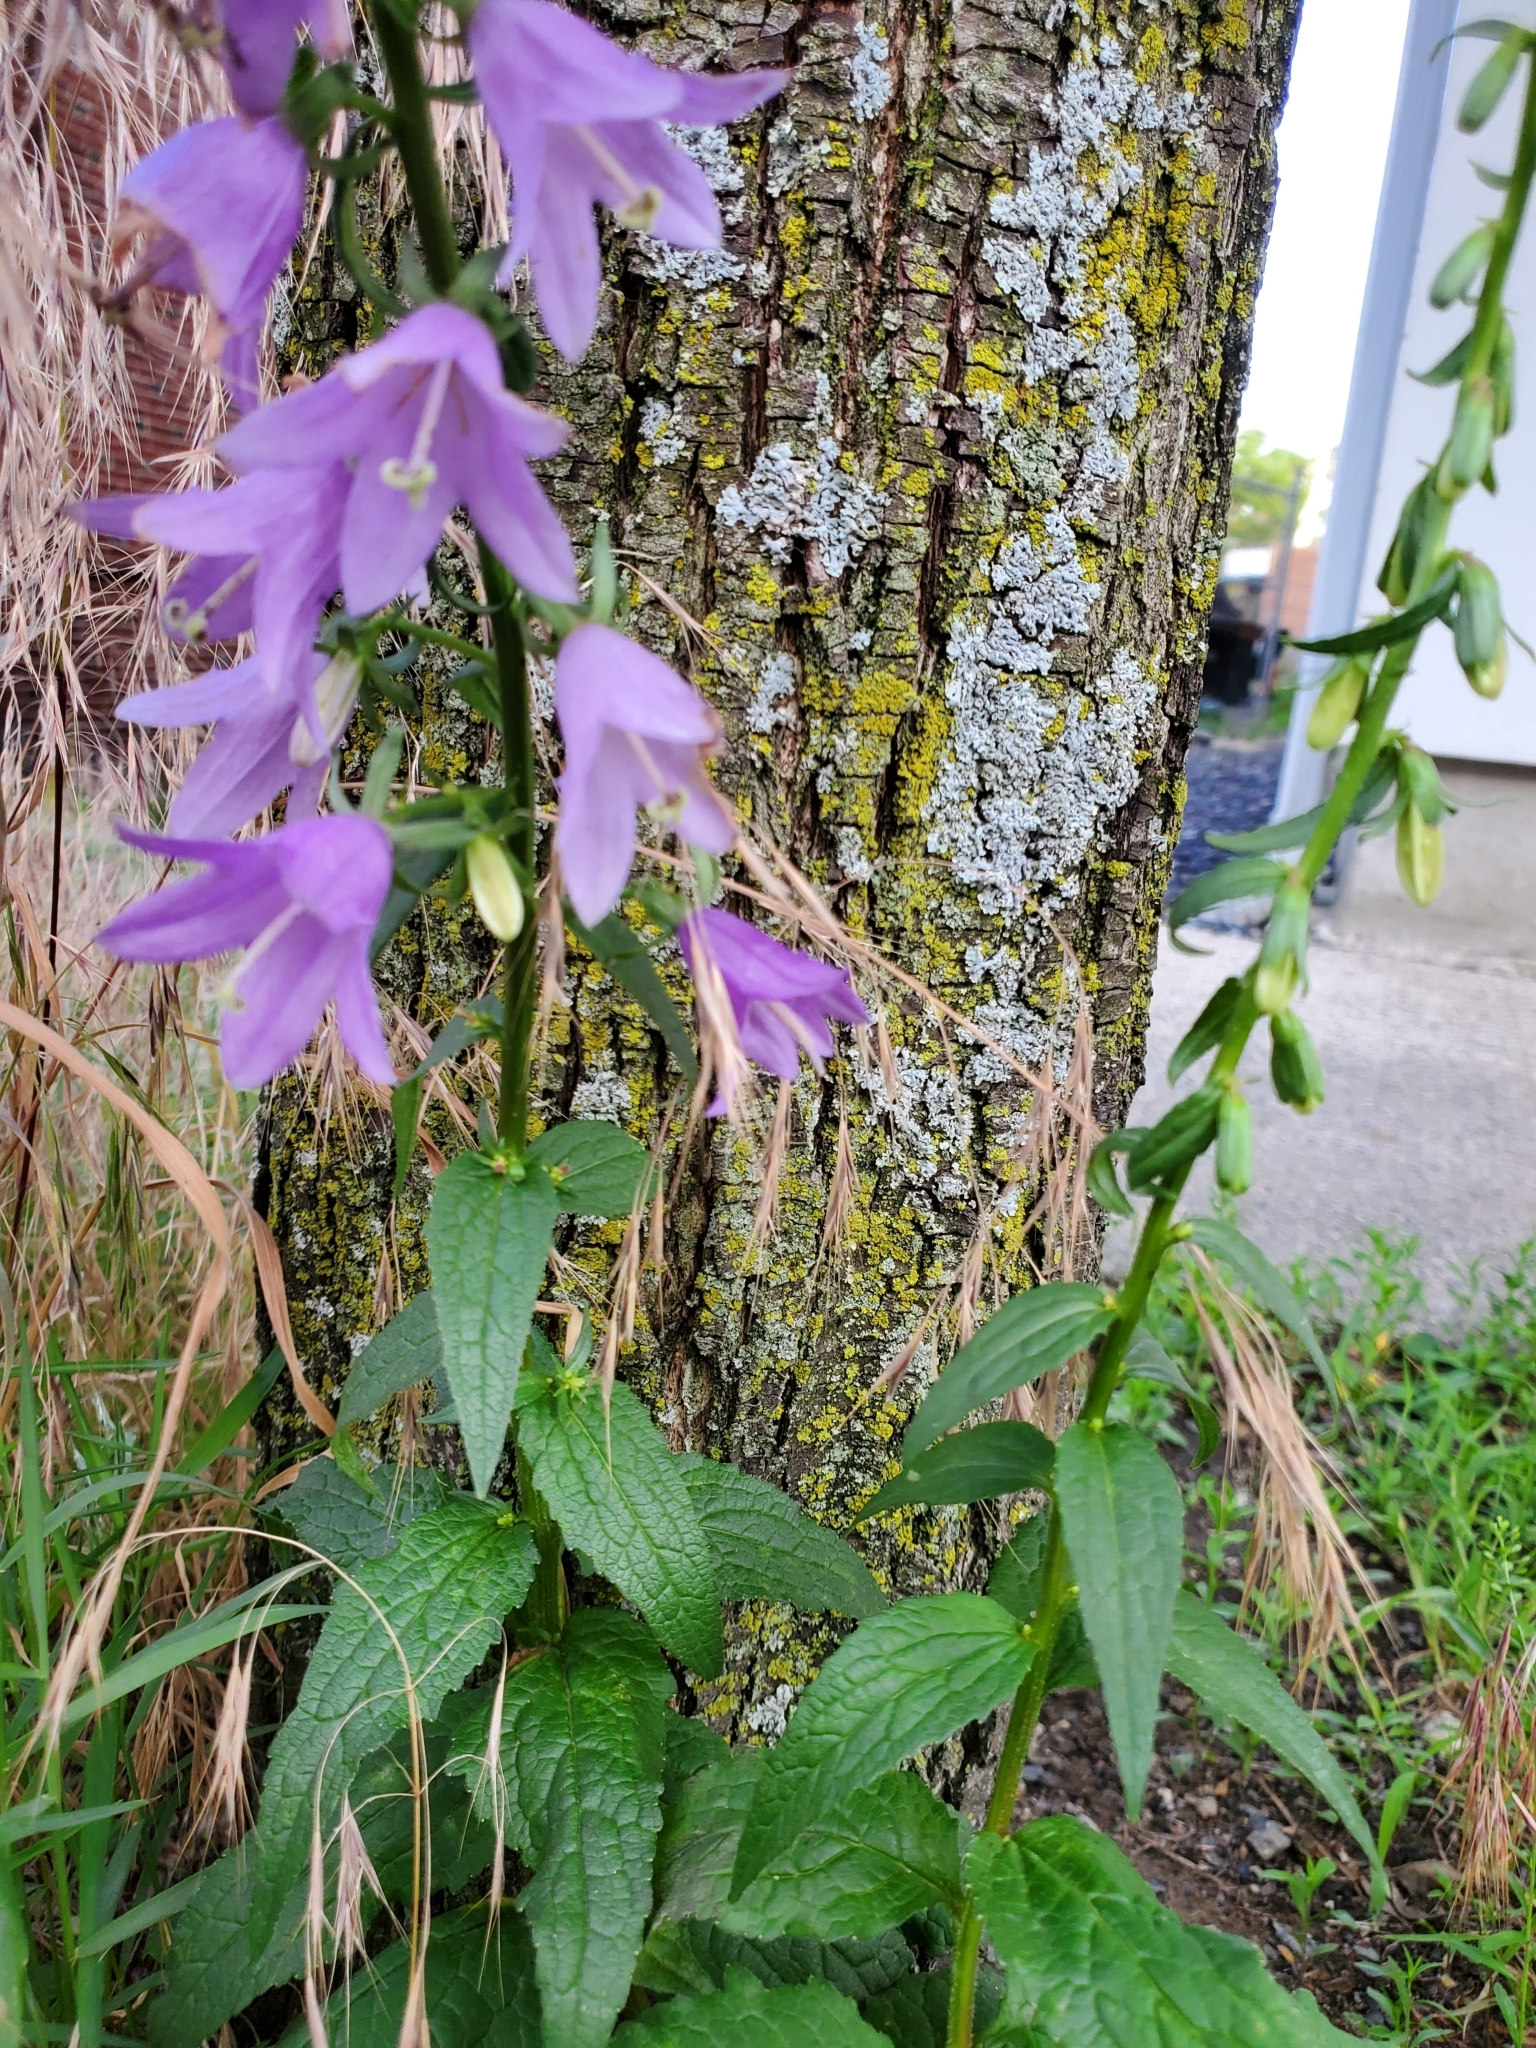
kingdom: Plantae
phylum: Tracheophyta
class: Magnoliopsida
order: Asterales
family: Campanulaceae
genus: Campanula
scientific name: Campanula rapunculoides
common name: Creeping bellflower
